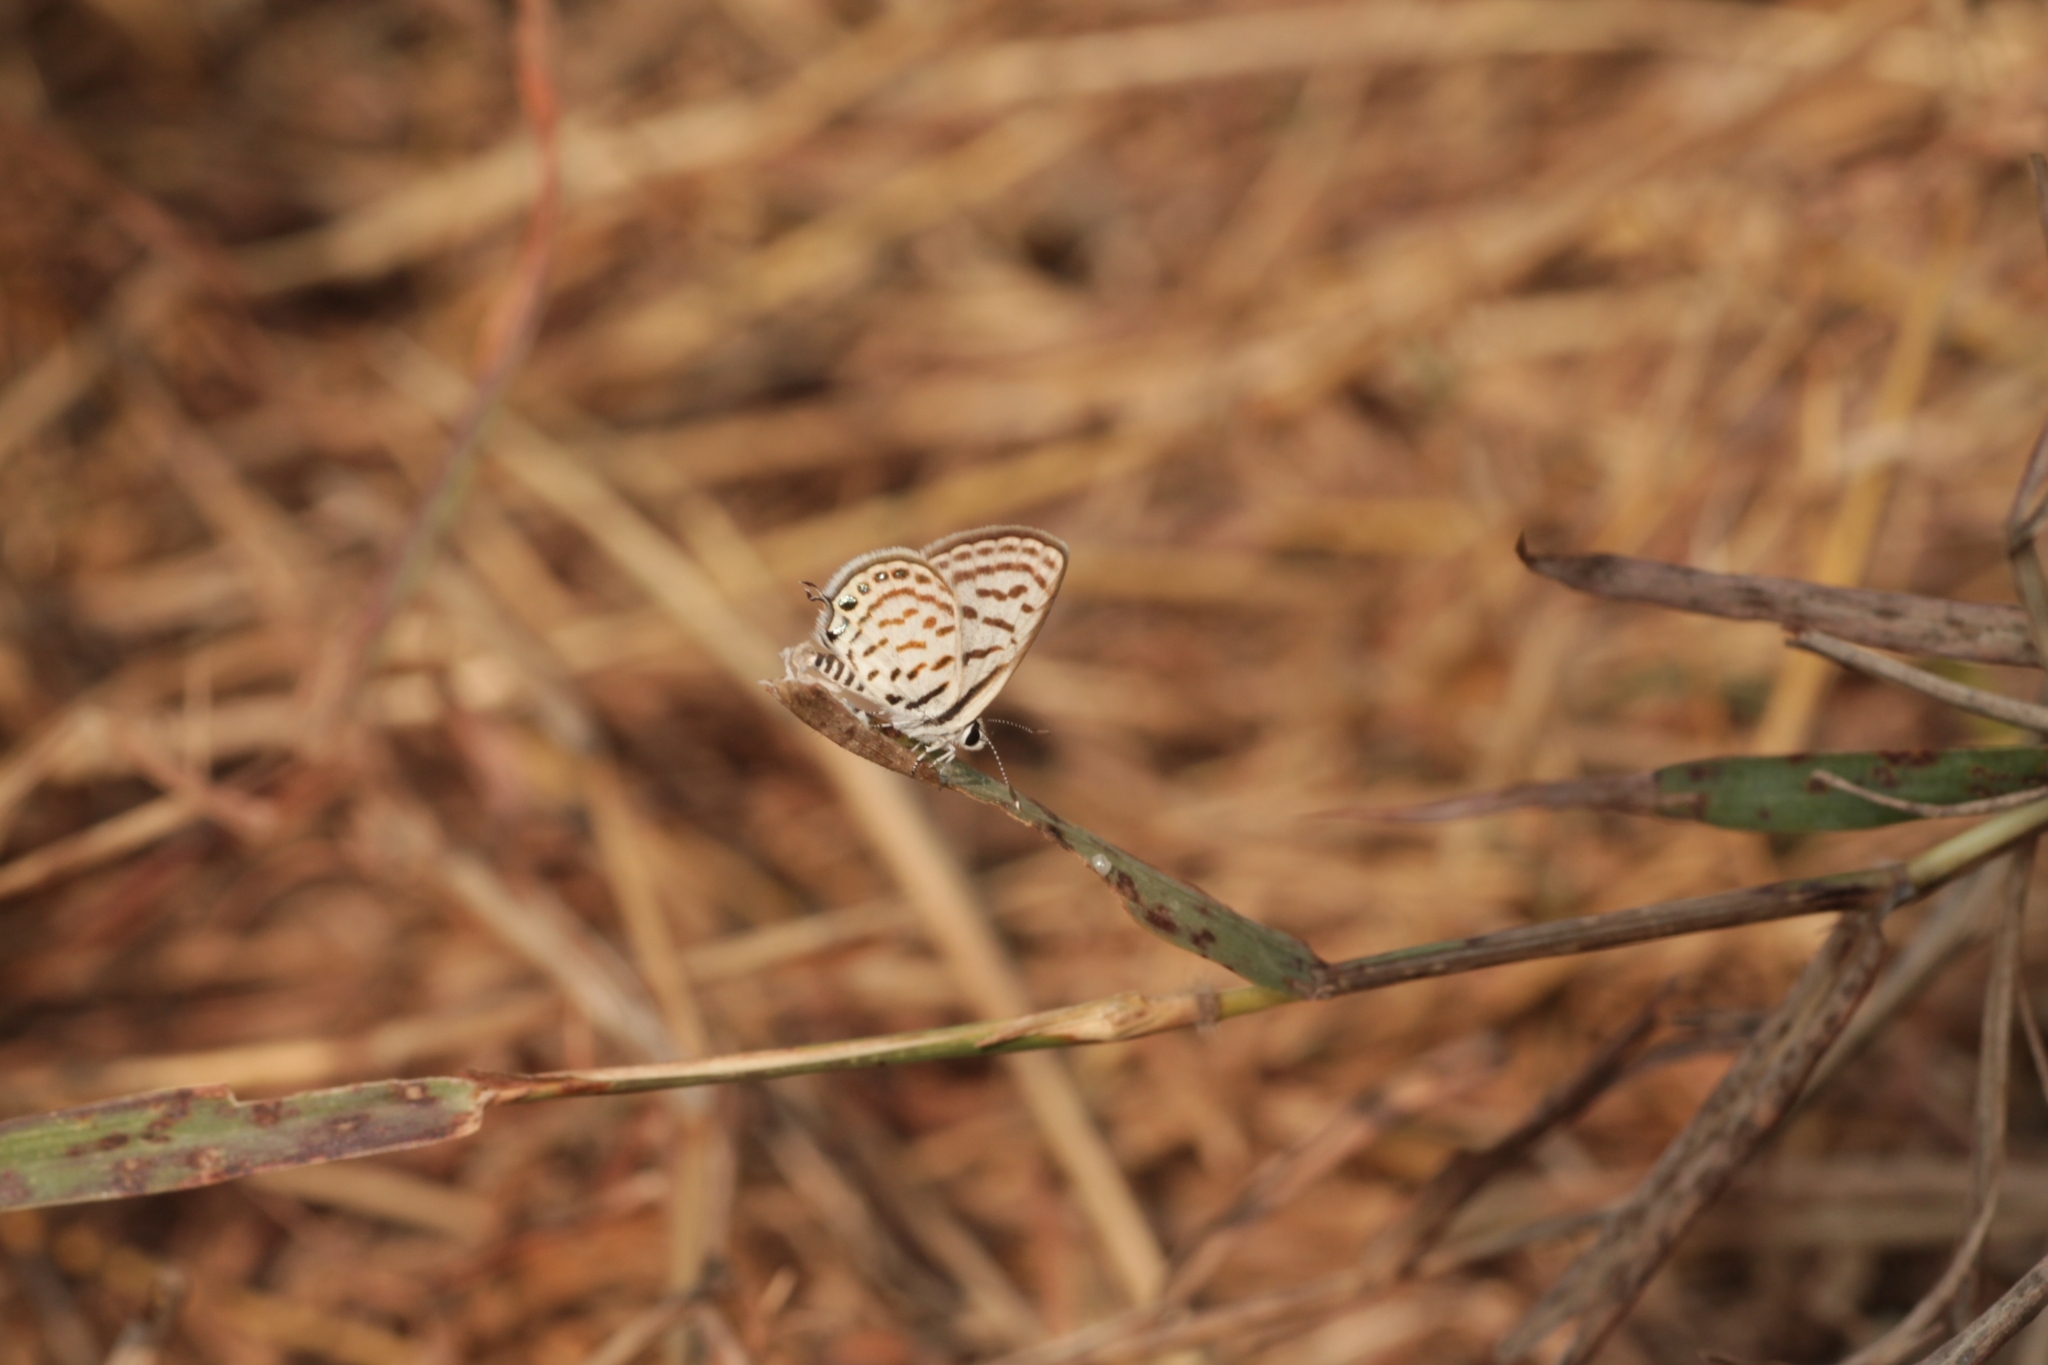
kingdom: Animalia
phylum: Arthropoda
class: Insecta
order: Lepidoptera
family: Lycaenidae
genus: Tarucus
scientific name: Tarucus nara
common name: Striped pierrot
